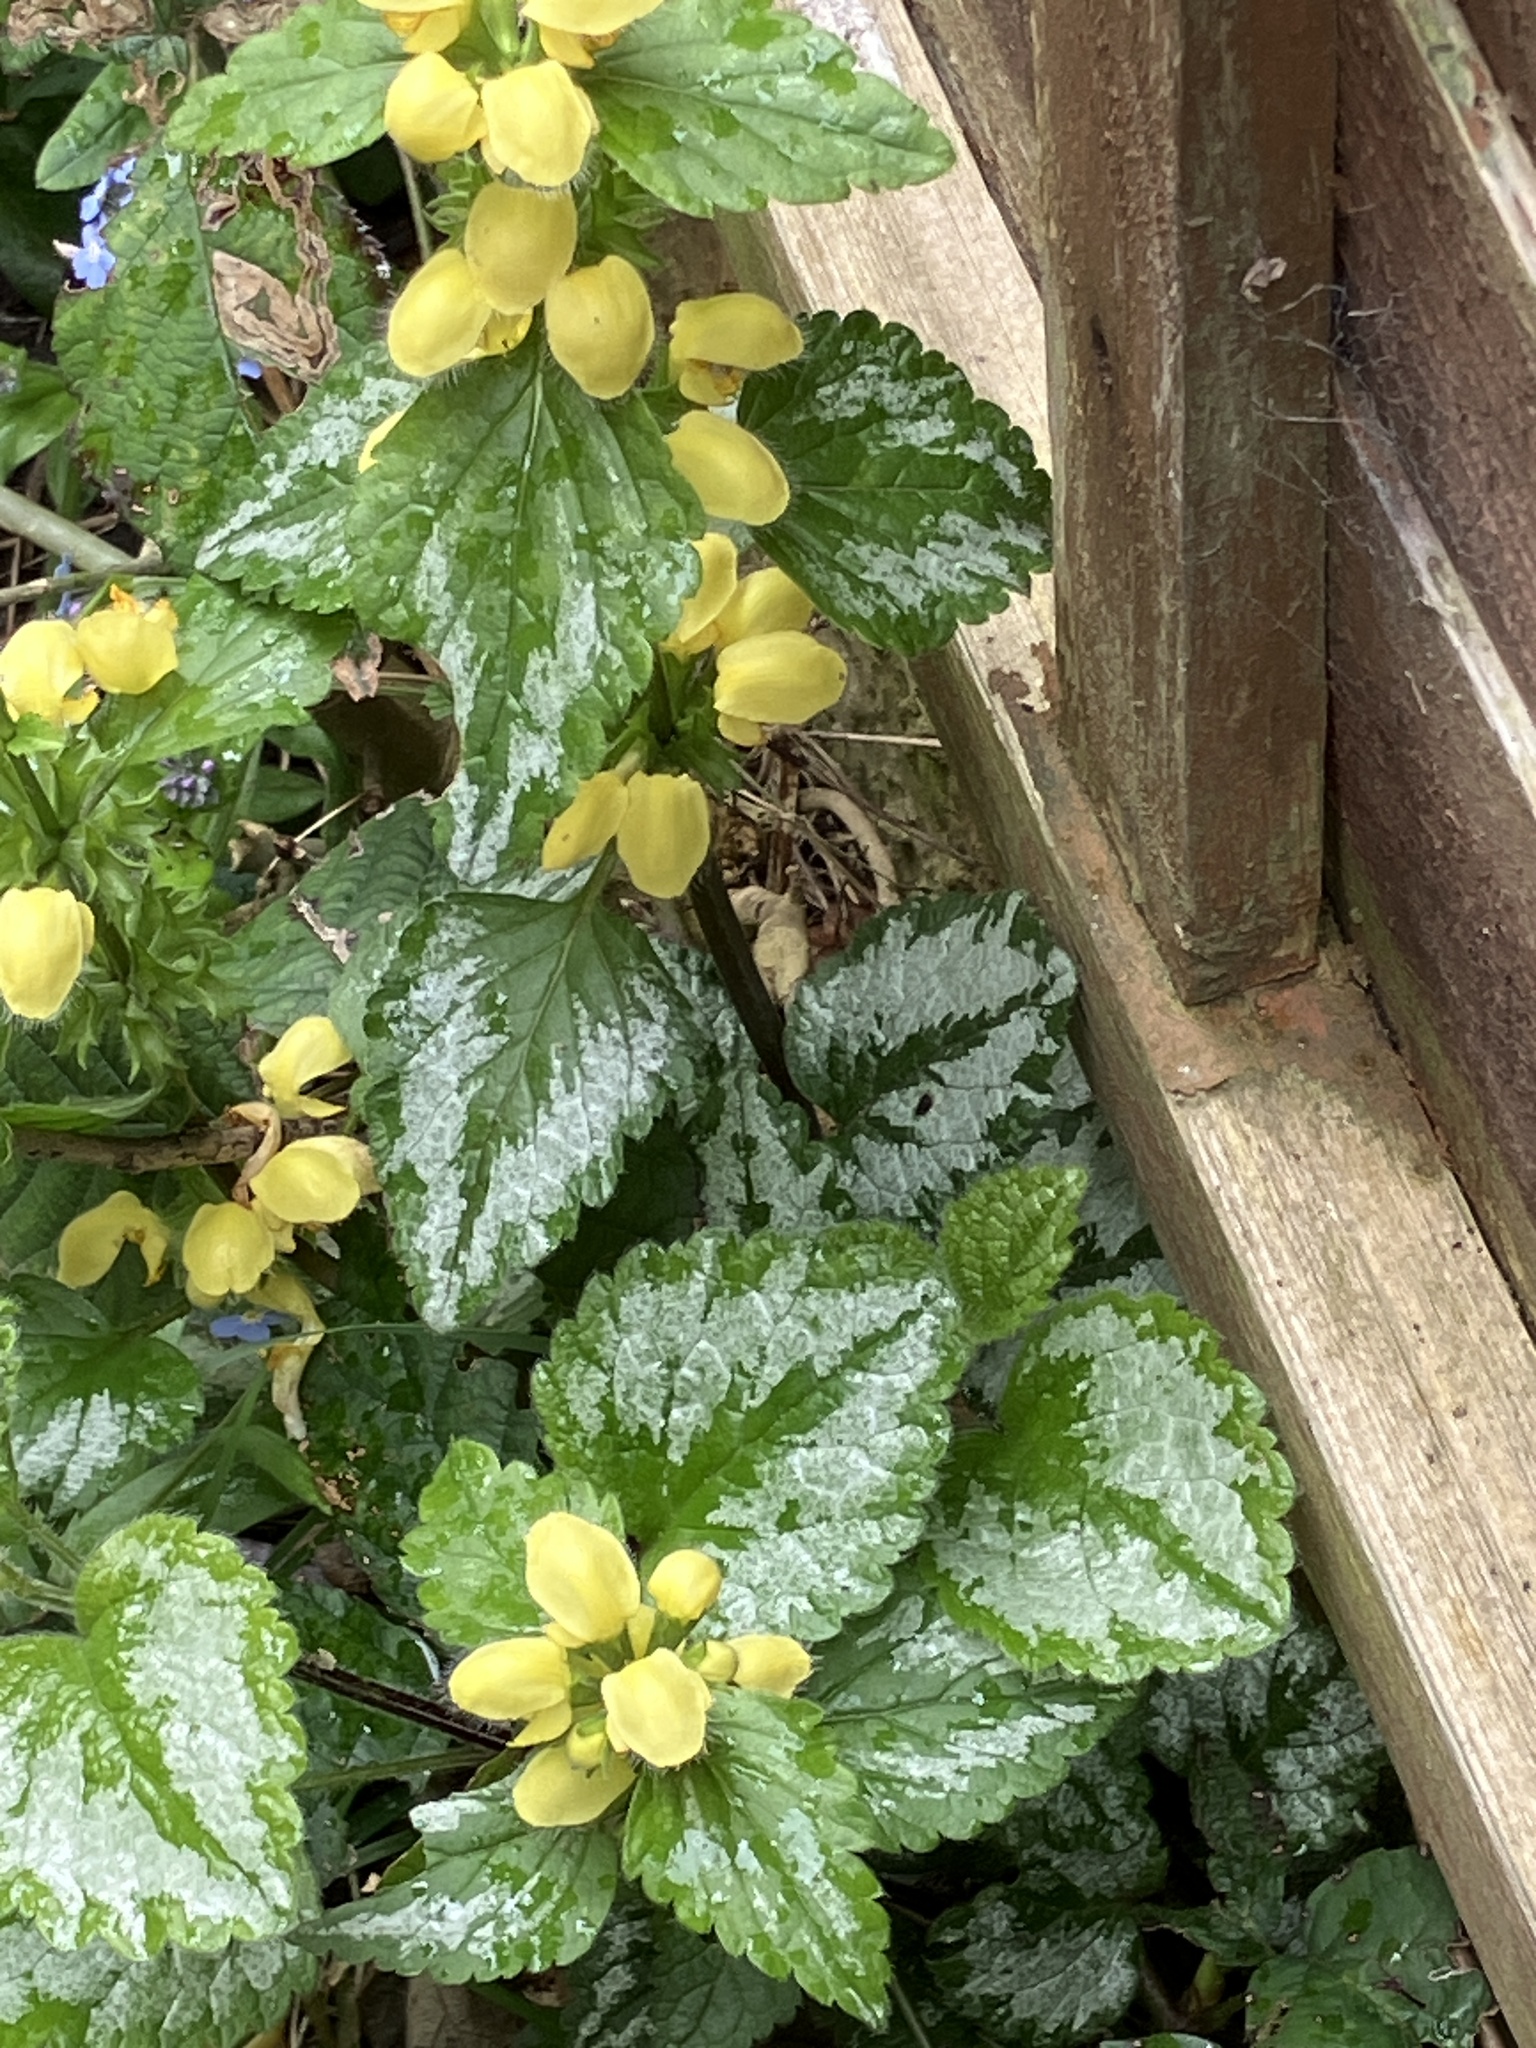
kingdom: Plantae
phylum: Tracheophyta
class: Magnoliopsida
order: Lamiales
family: Lamiaceae
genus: Lamium
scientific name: Lamium galeobdolon
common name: Yellow archangel
